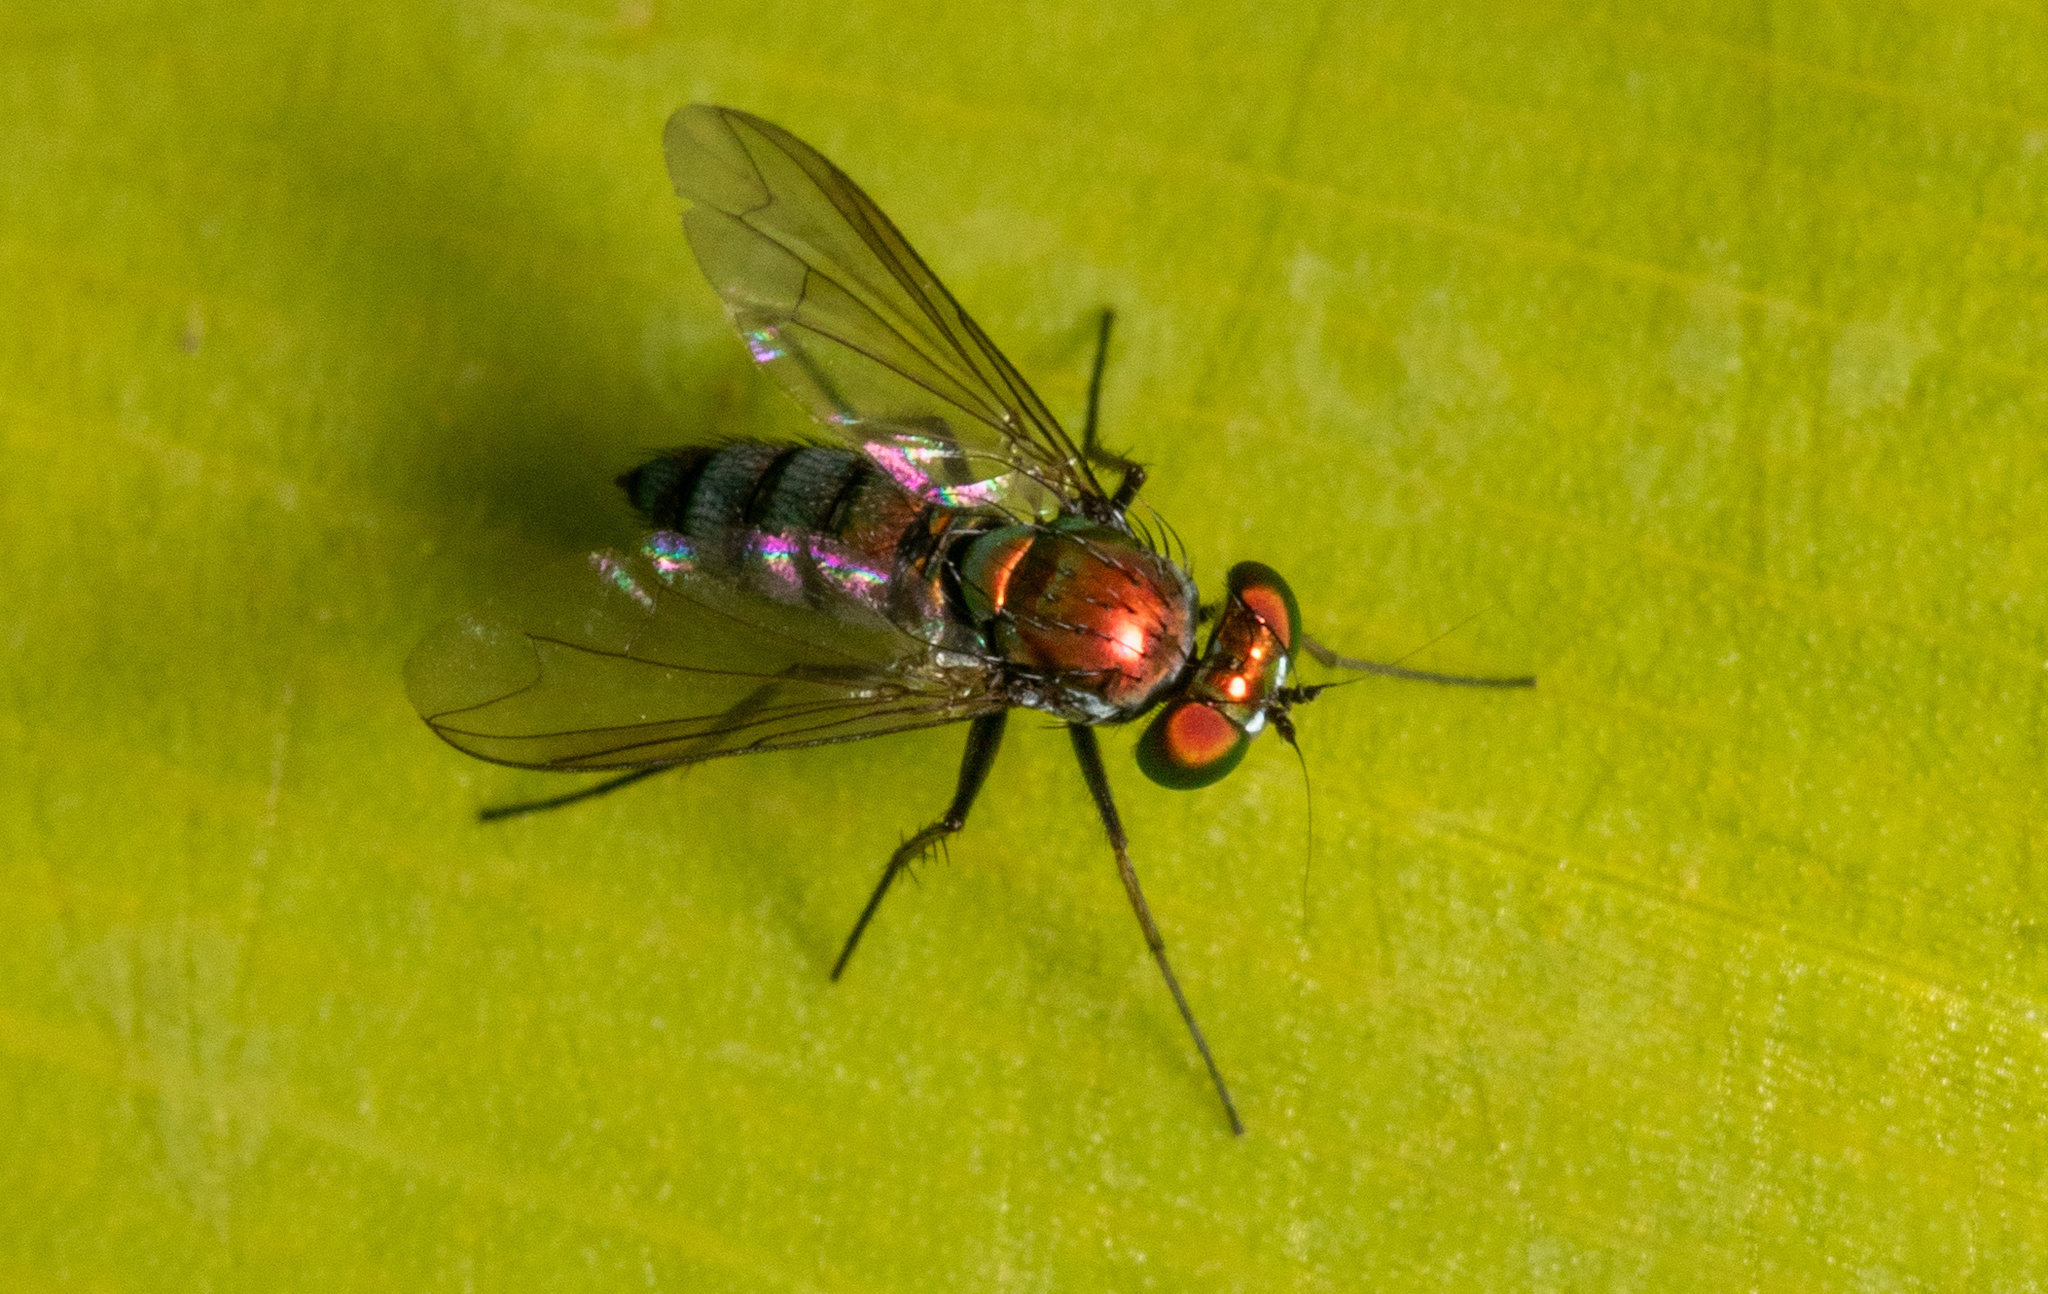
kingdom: Animalia
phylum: Arthropoda
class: Insecta
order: Diptera
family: Dolichopodidae
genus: Condylostylus
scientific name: Condylostylus longicornis
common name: Long-legged fly
